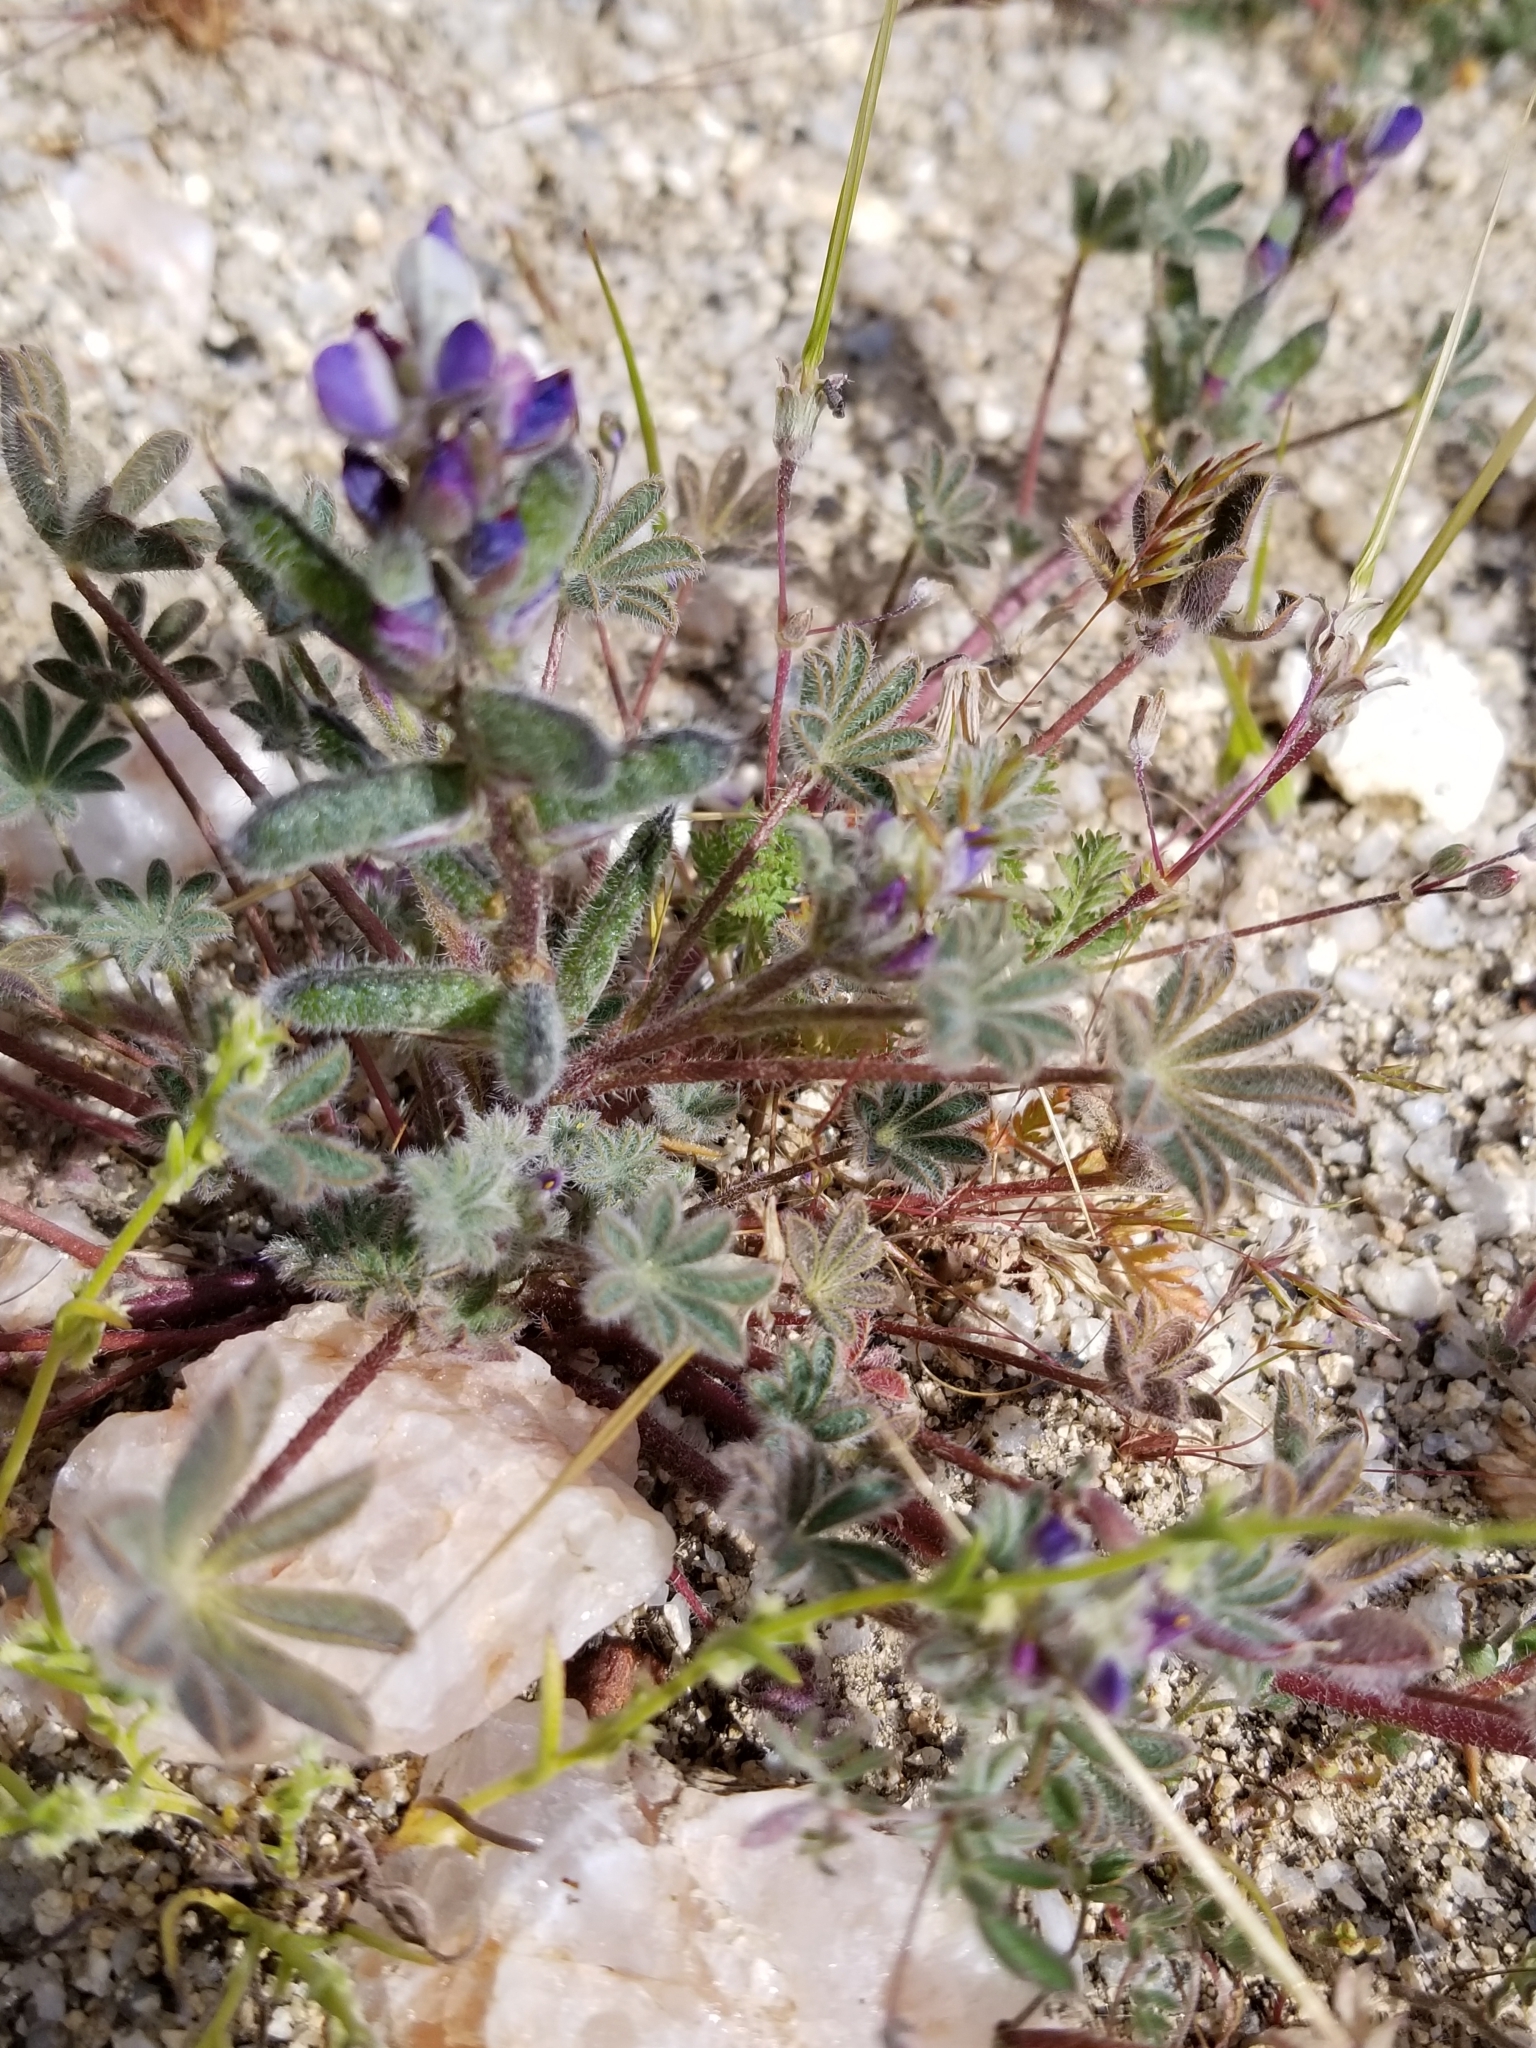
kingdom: Plantae
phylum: Tracheophyta
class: Magnoliopsida
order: Fabales
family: Fabaceae
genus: Lupinus
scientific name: Lupinus concinnus
